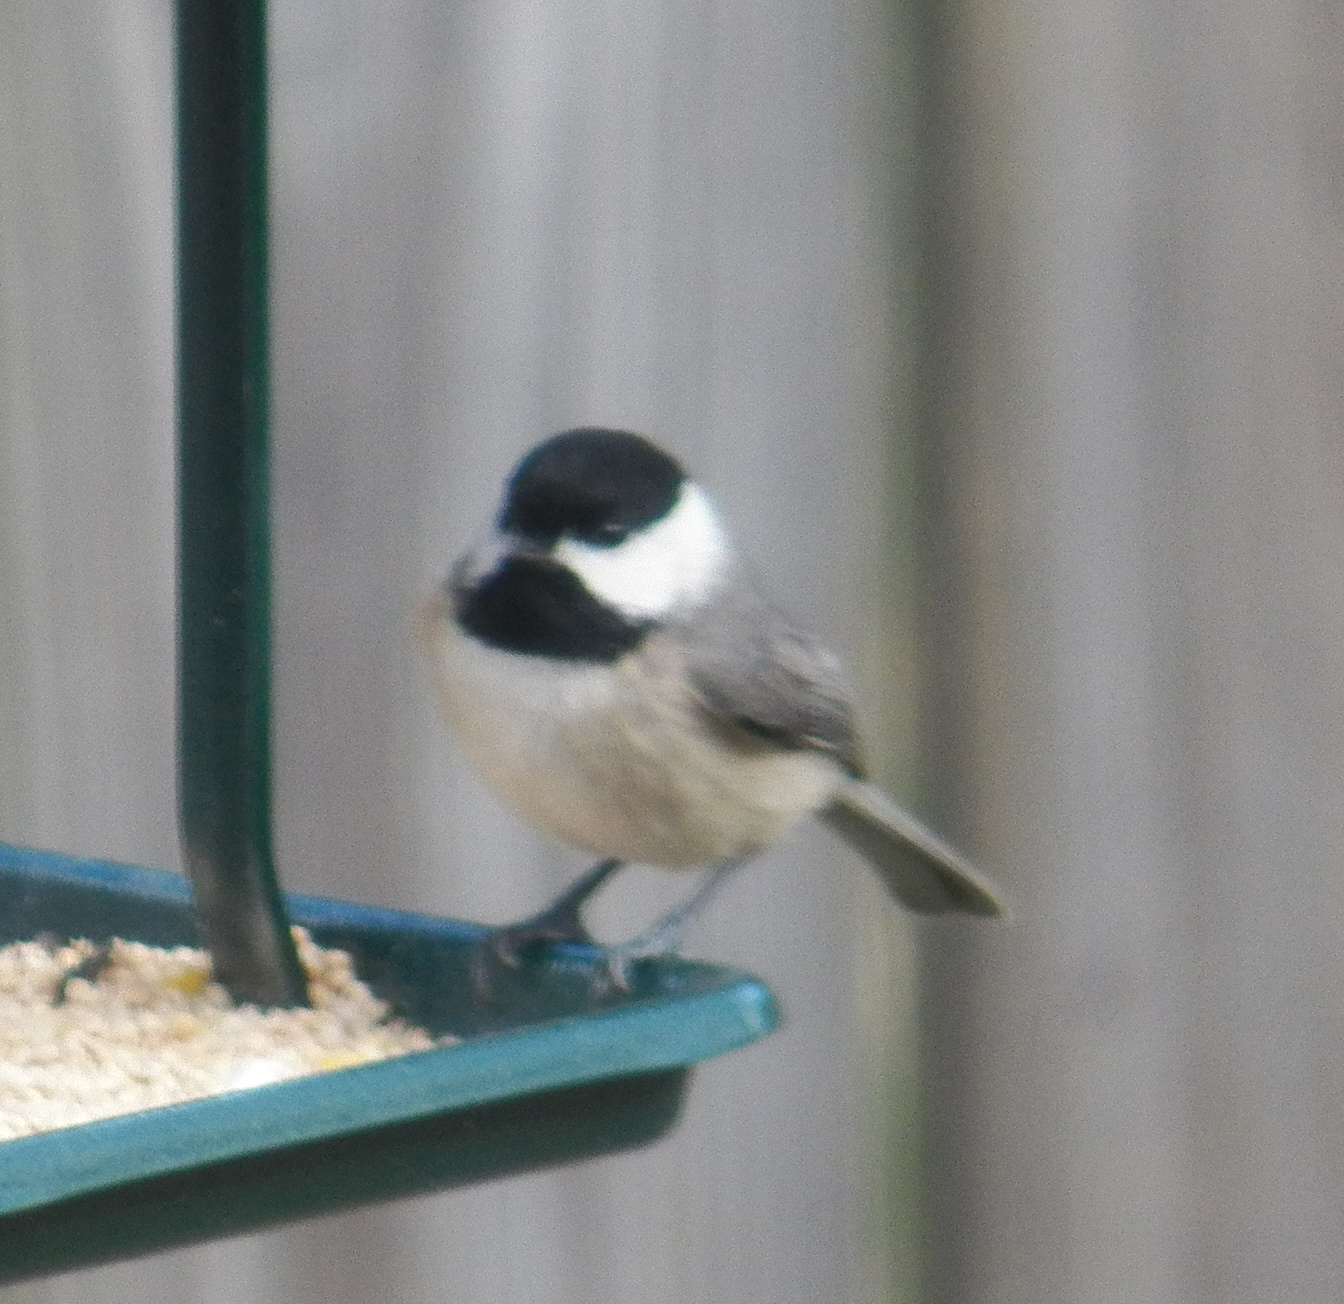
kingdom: Animalia
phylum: Chordata
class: Aves
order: Passeriformes
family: Paridae
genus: Poecile
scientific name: Poecile carolinensis
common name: Carolina chickadee
